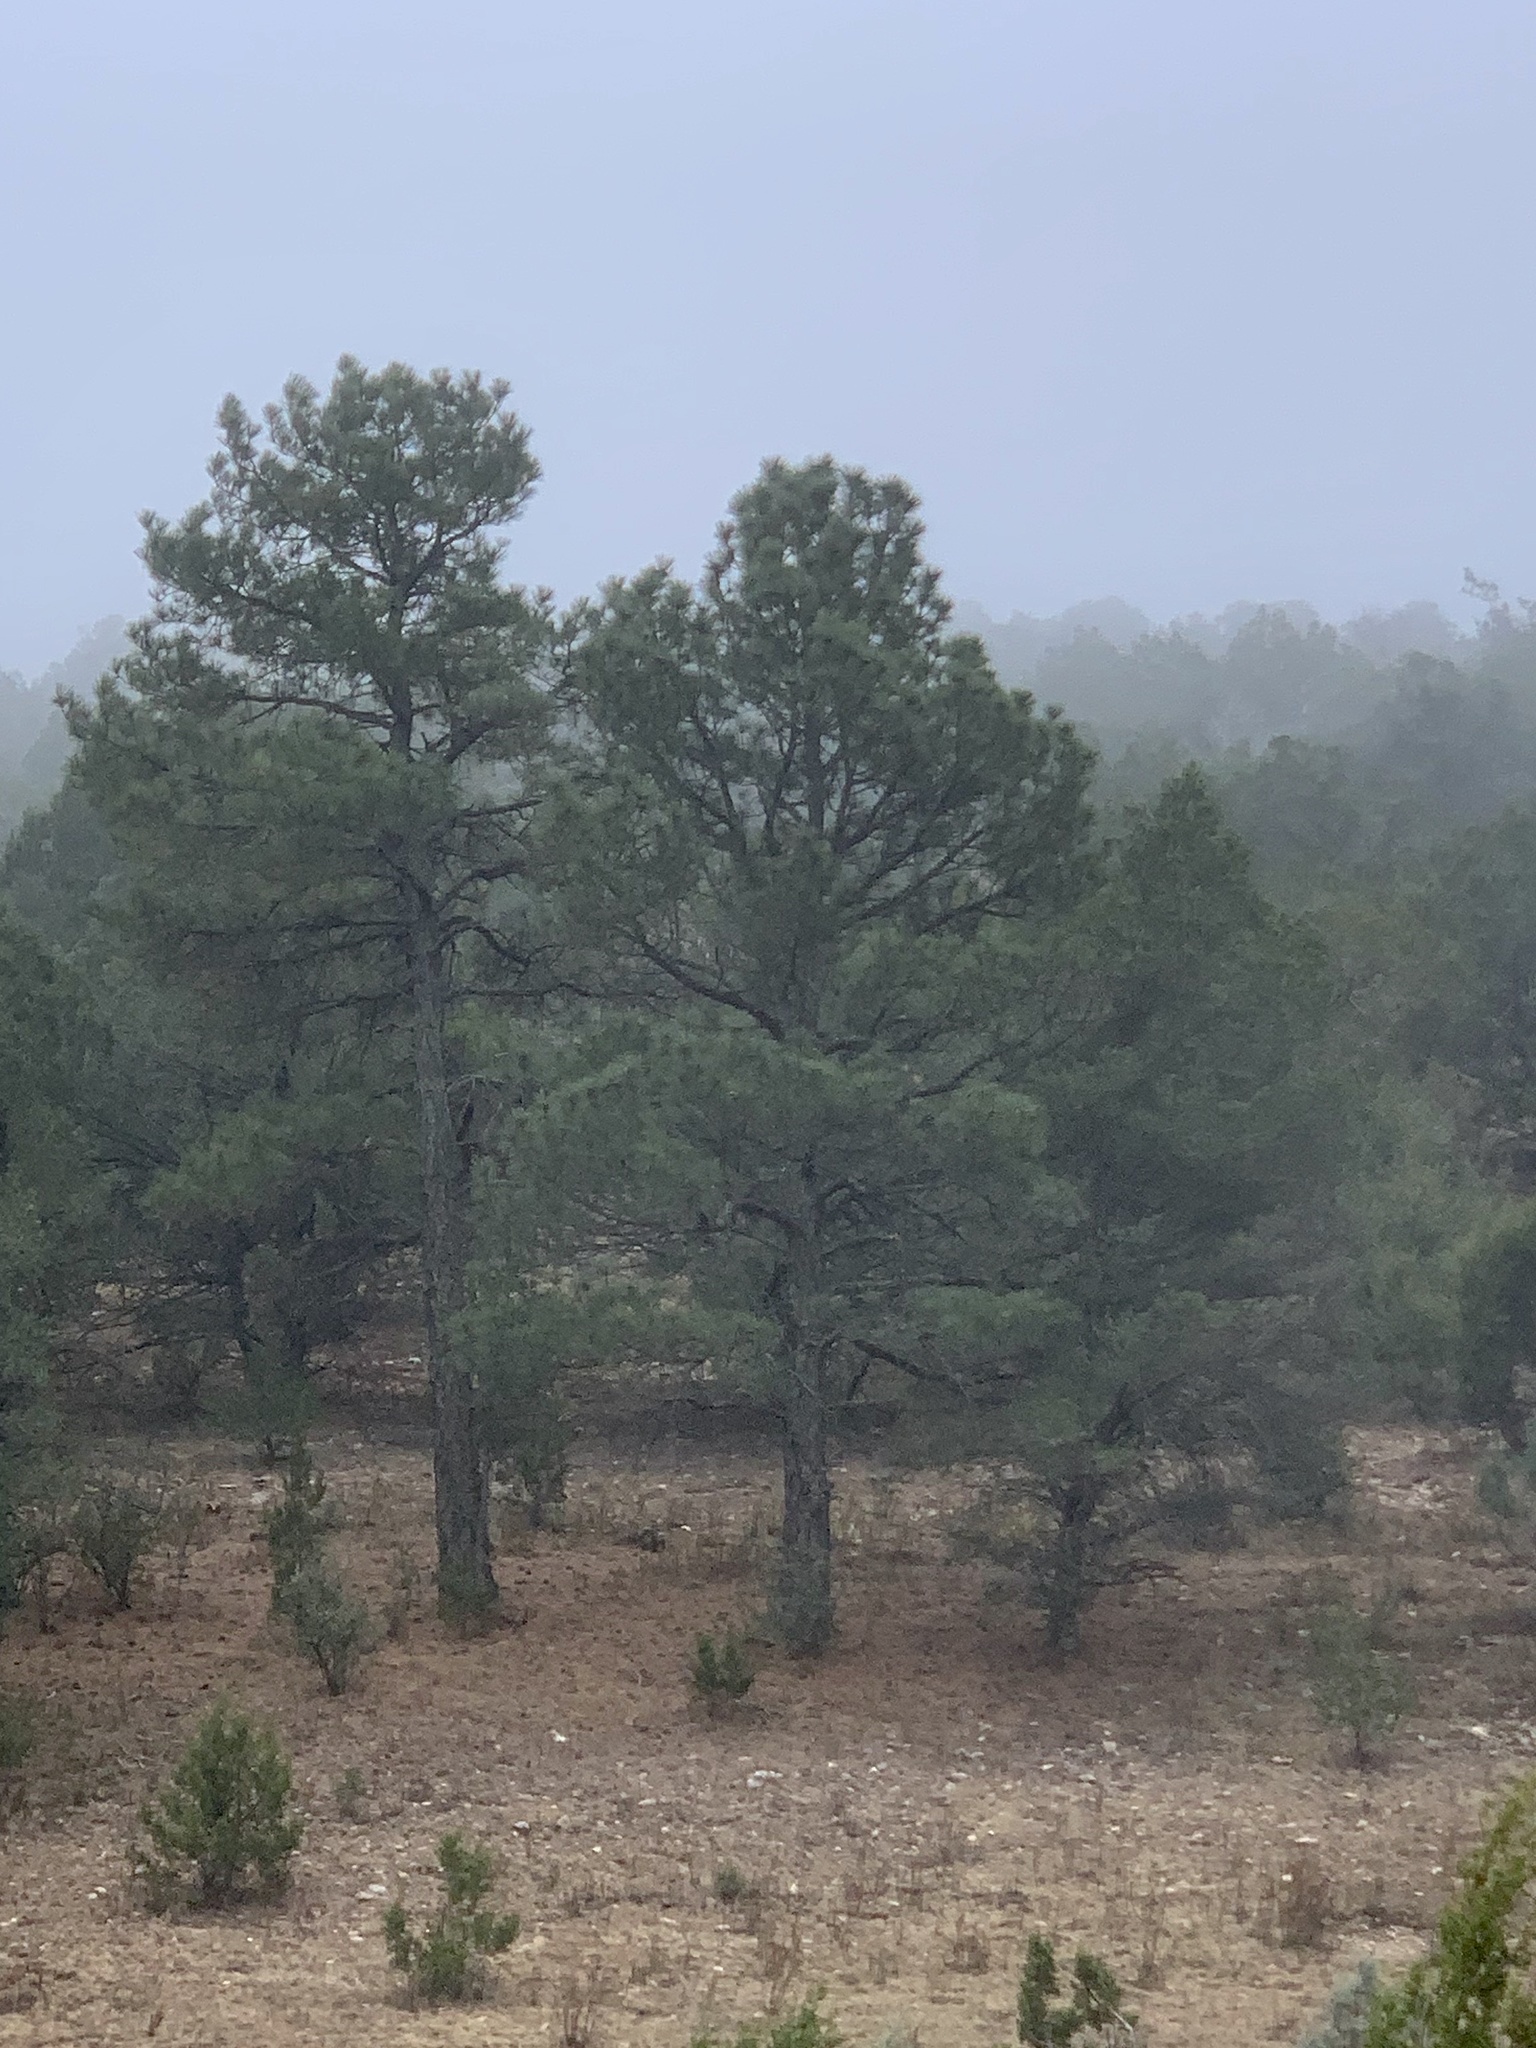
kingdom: Plantae
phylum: Tracheophyta
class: Pinopsida
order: Pinales
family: Pinaceae
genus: Pinus
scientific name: Pinus ponderosa
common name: Western yellow-pine
